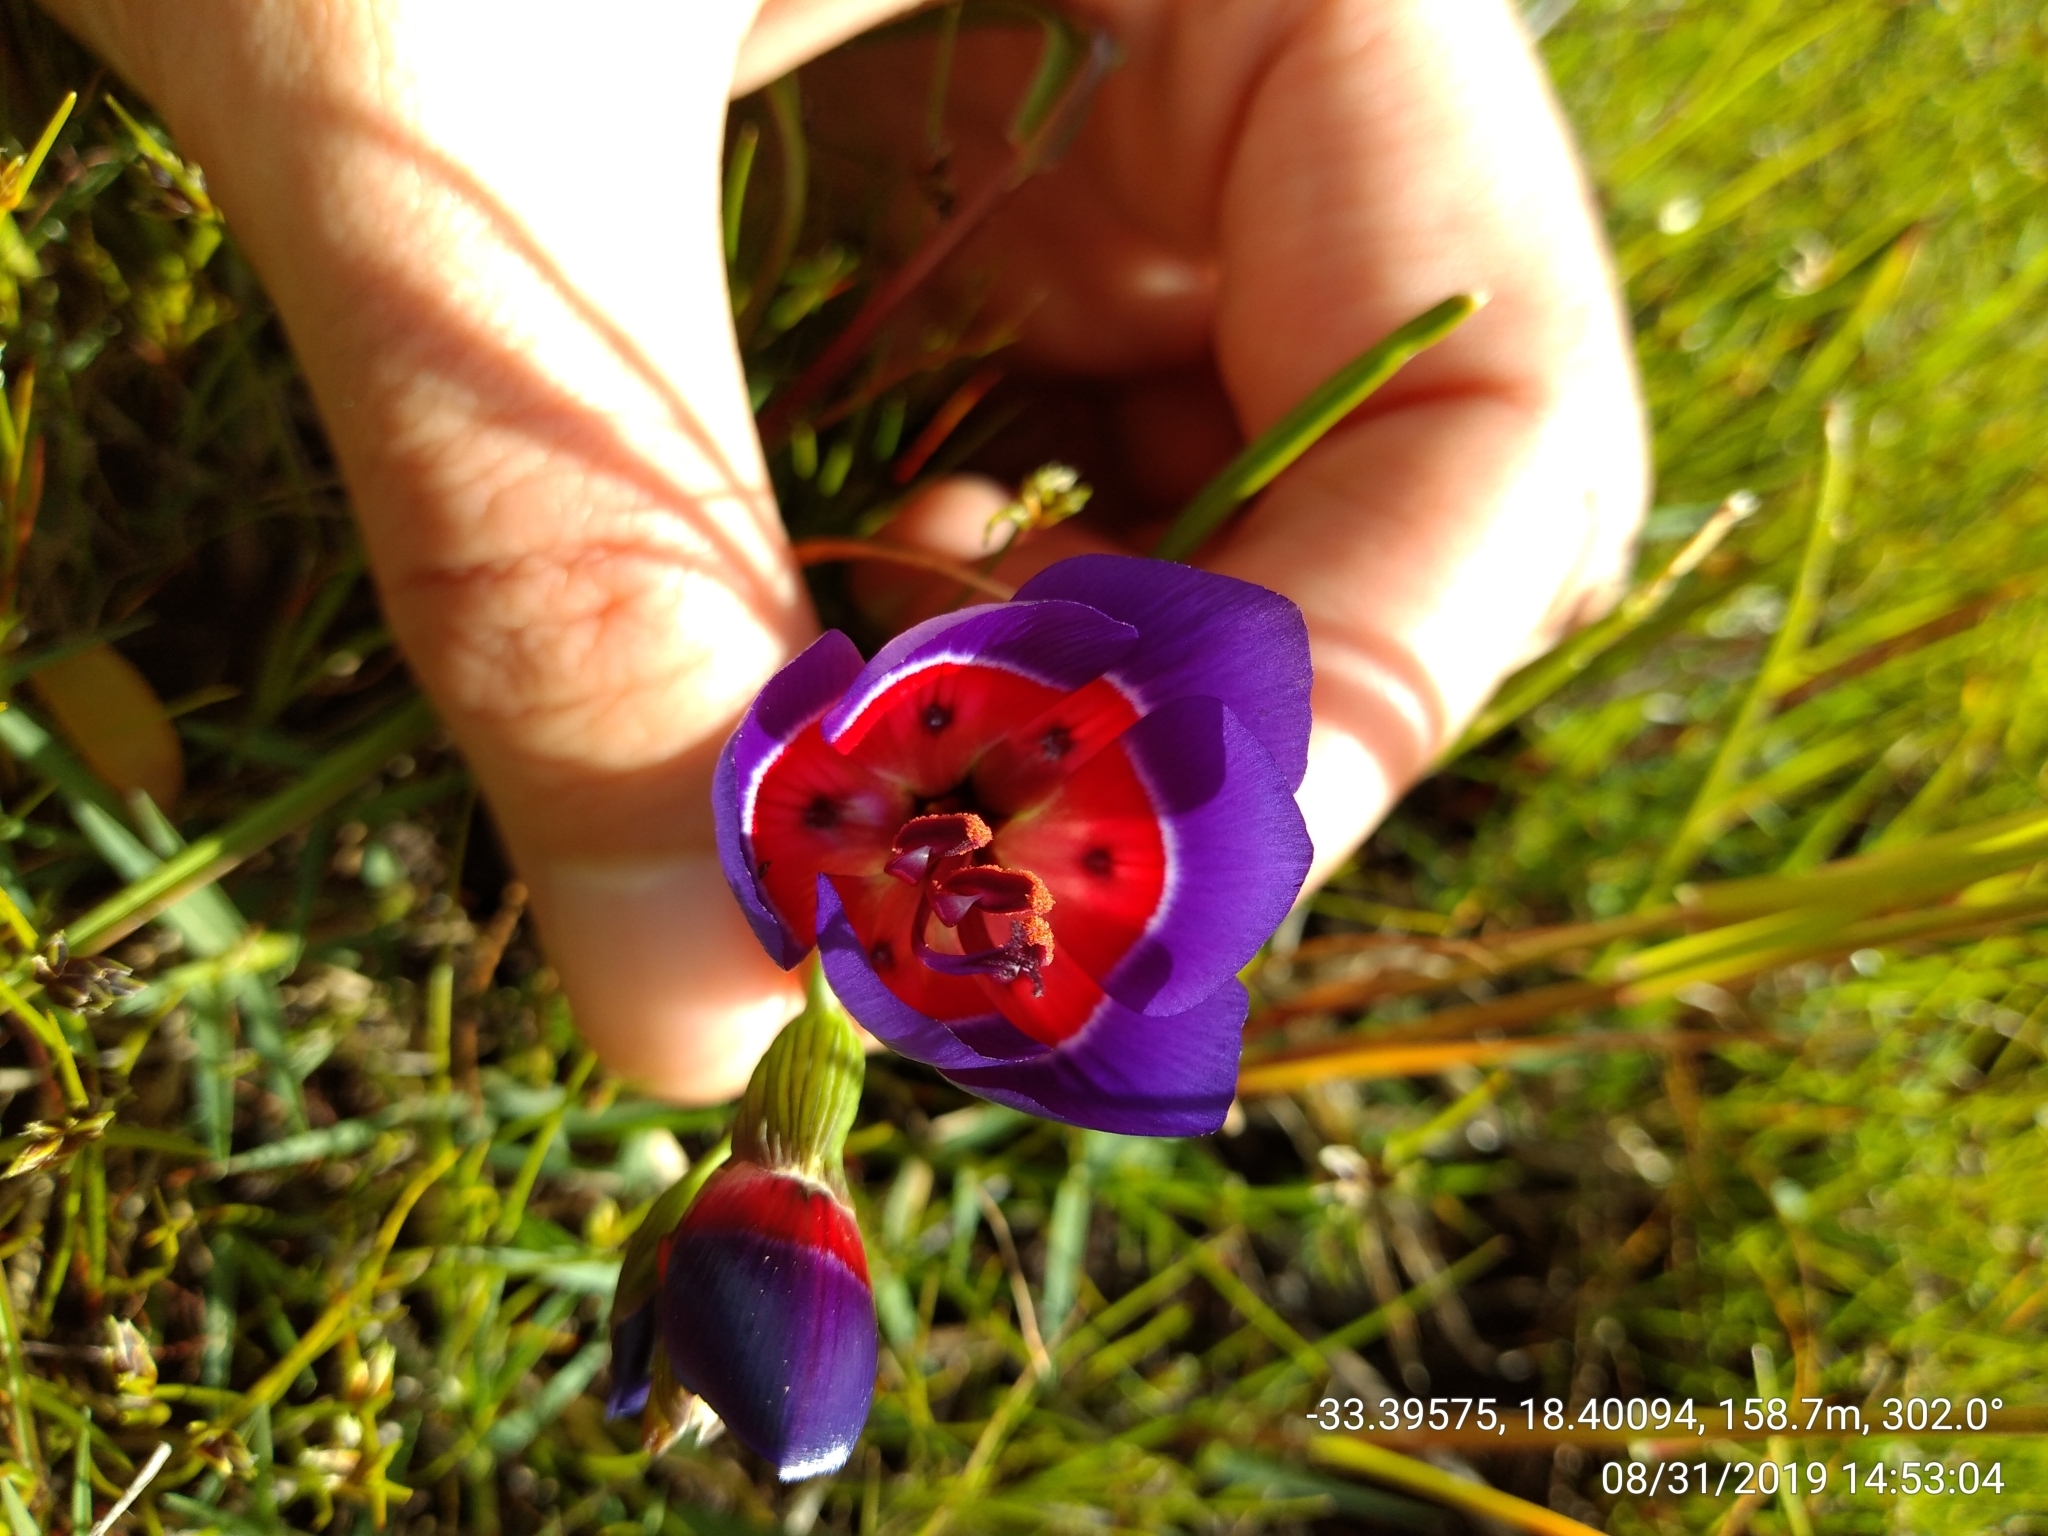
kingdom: Plantae
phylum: Tracheophyta
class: Liliopsida
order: Asparagales
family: Iridaceae
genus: Geissorhiza
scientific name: Geissorhiza radians
